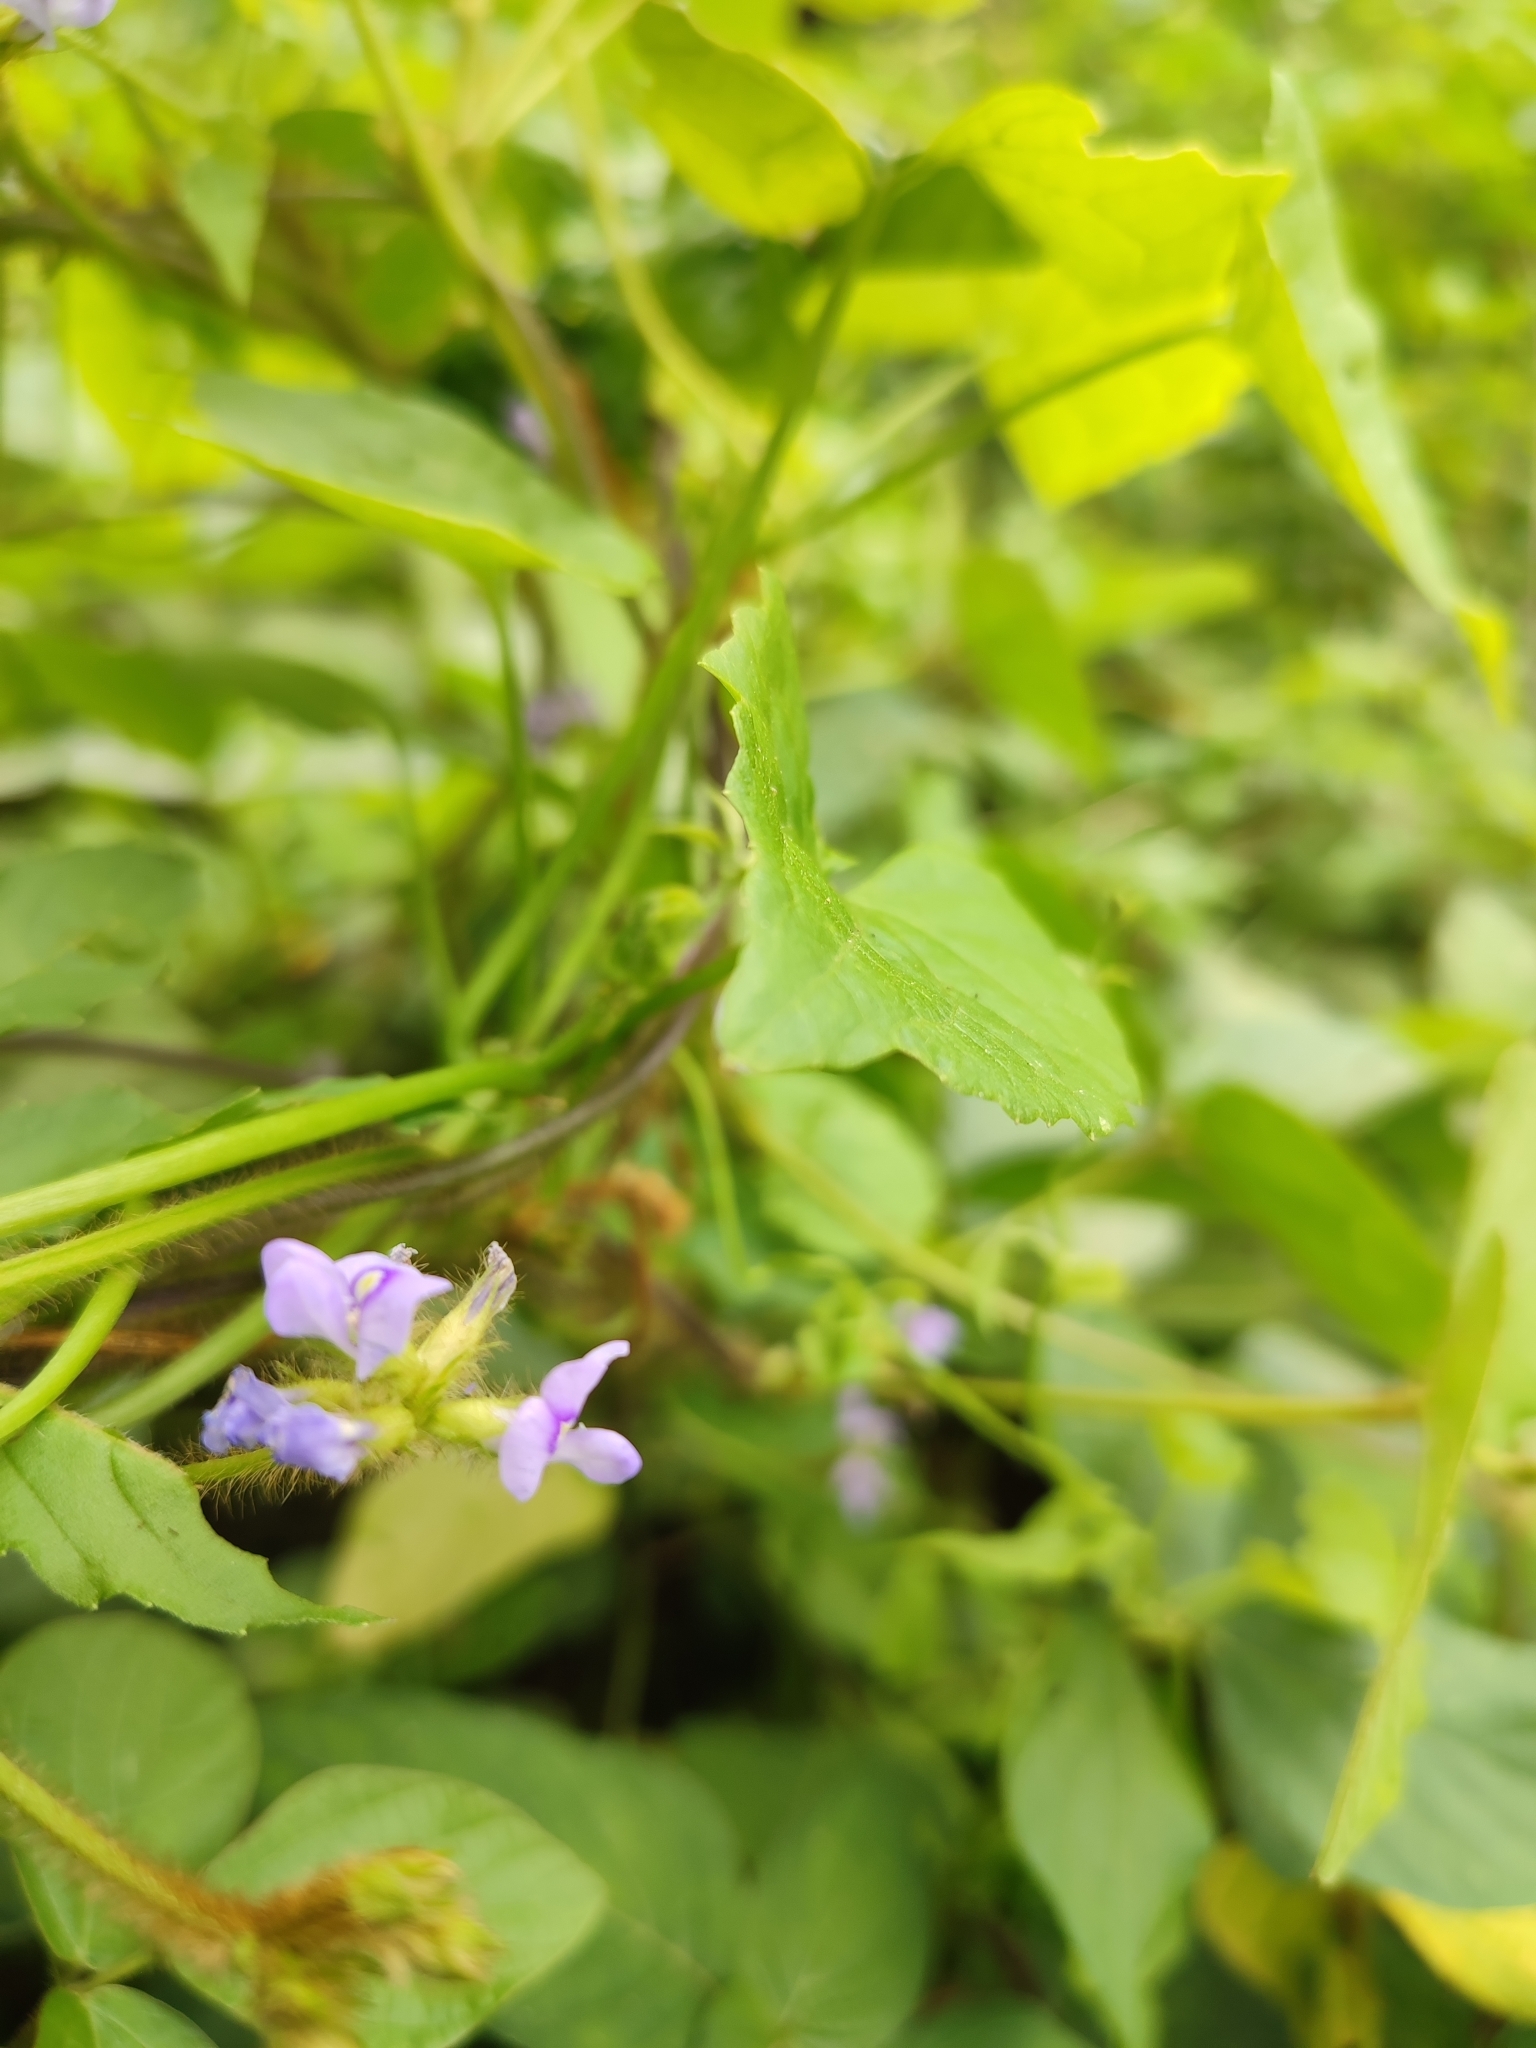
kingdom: Plantae
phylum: Tracheophyta
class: Magnoliopsida
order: Fabales
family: Fabaceae
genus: Calopogonium
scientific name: Calopogonium mucunoides
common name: Calopo
